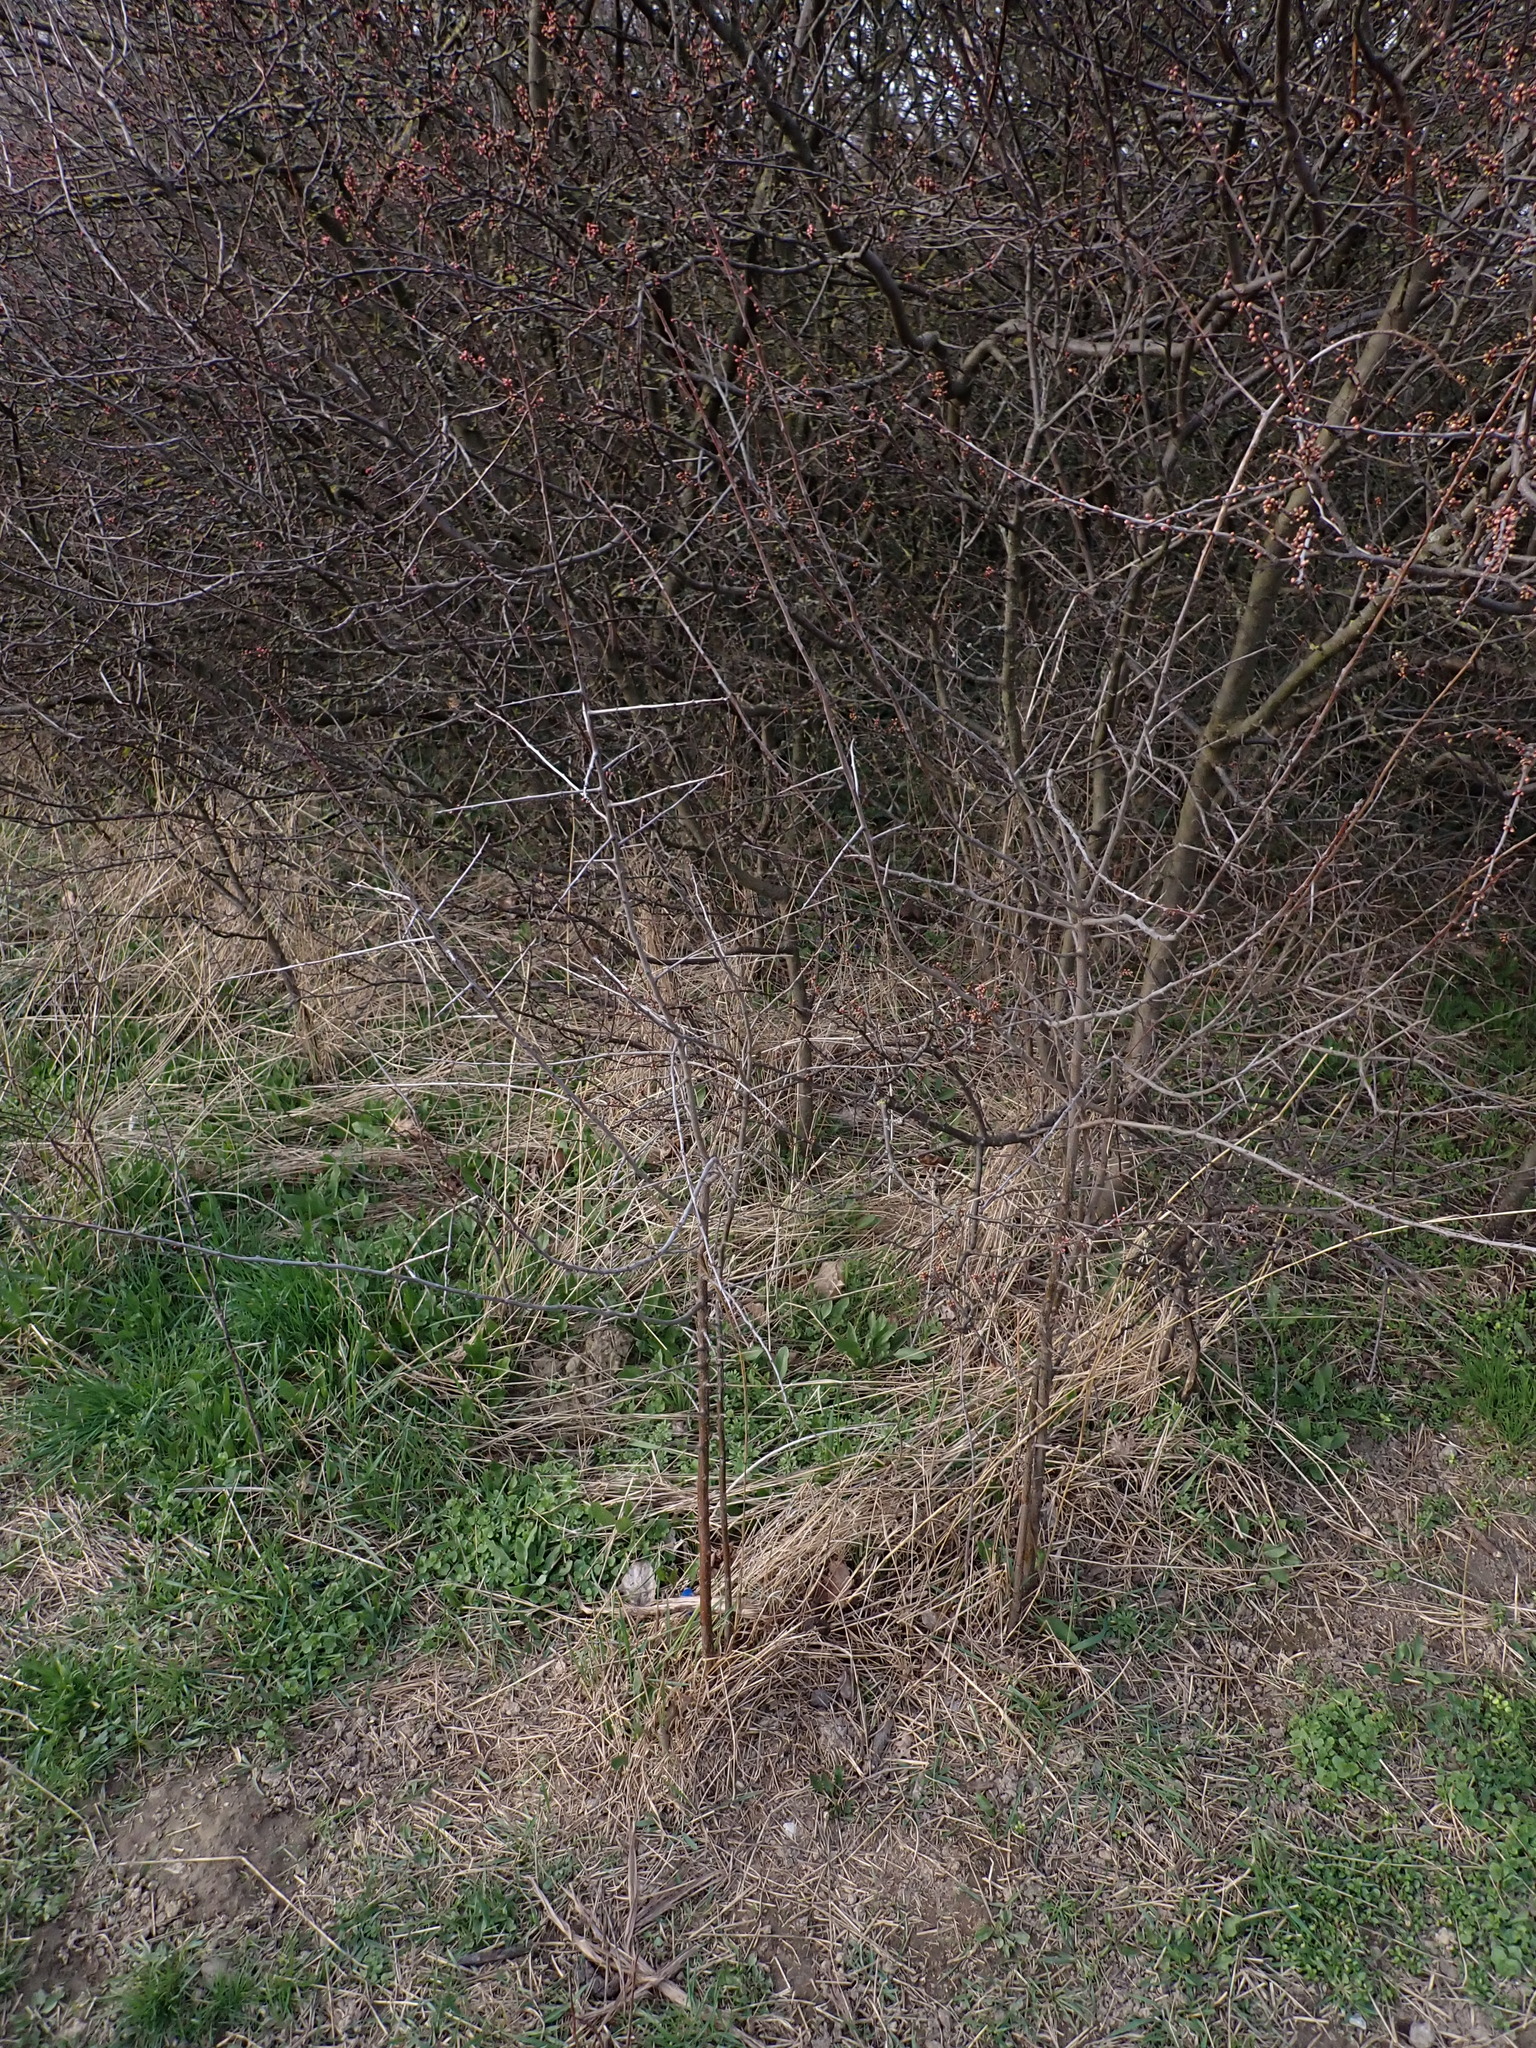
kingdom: Plantae
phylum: Tracheophyta
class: Magnoliopsida
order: Rosales
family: Rosaceae
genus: Prunus
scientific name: Prunus spinosa
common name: Blackthorn
